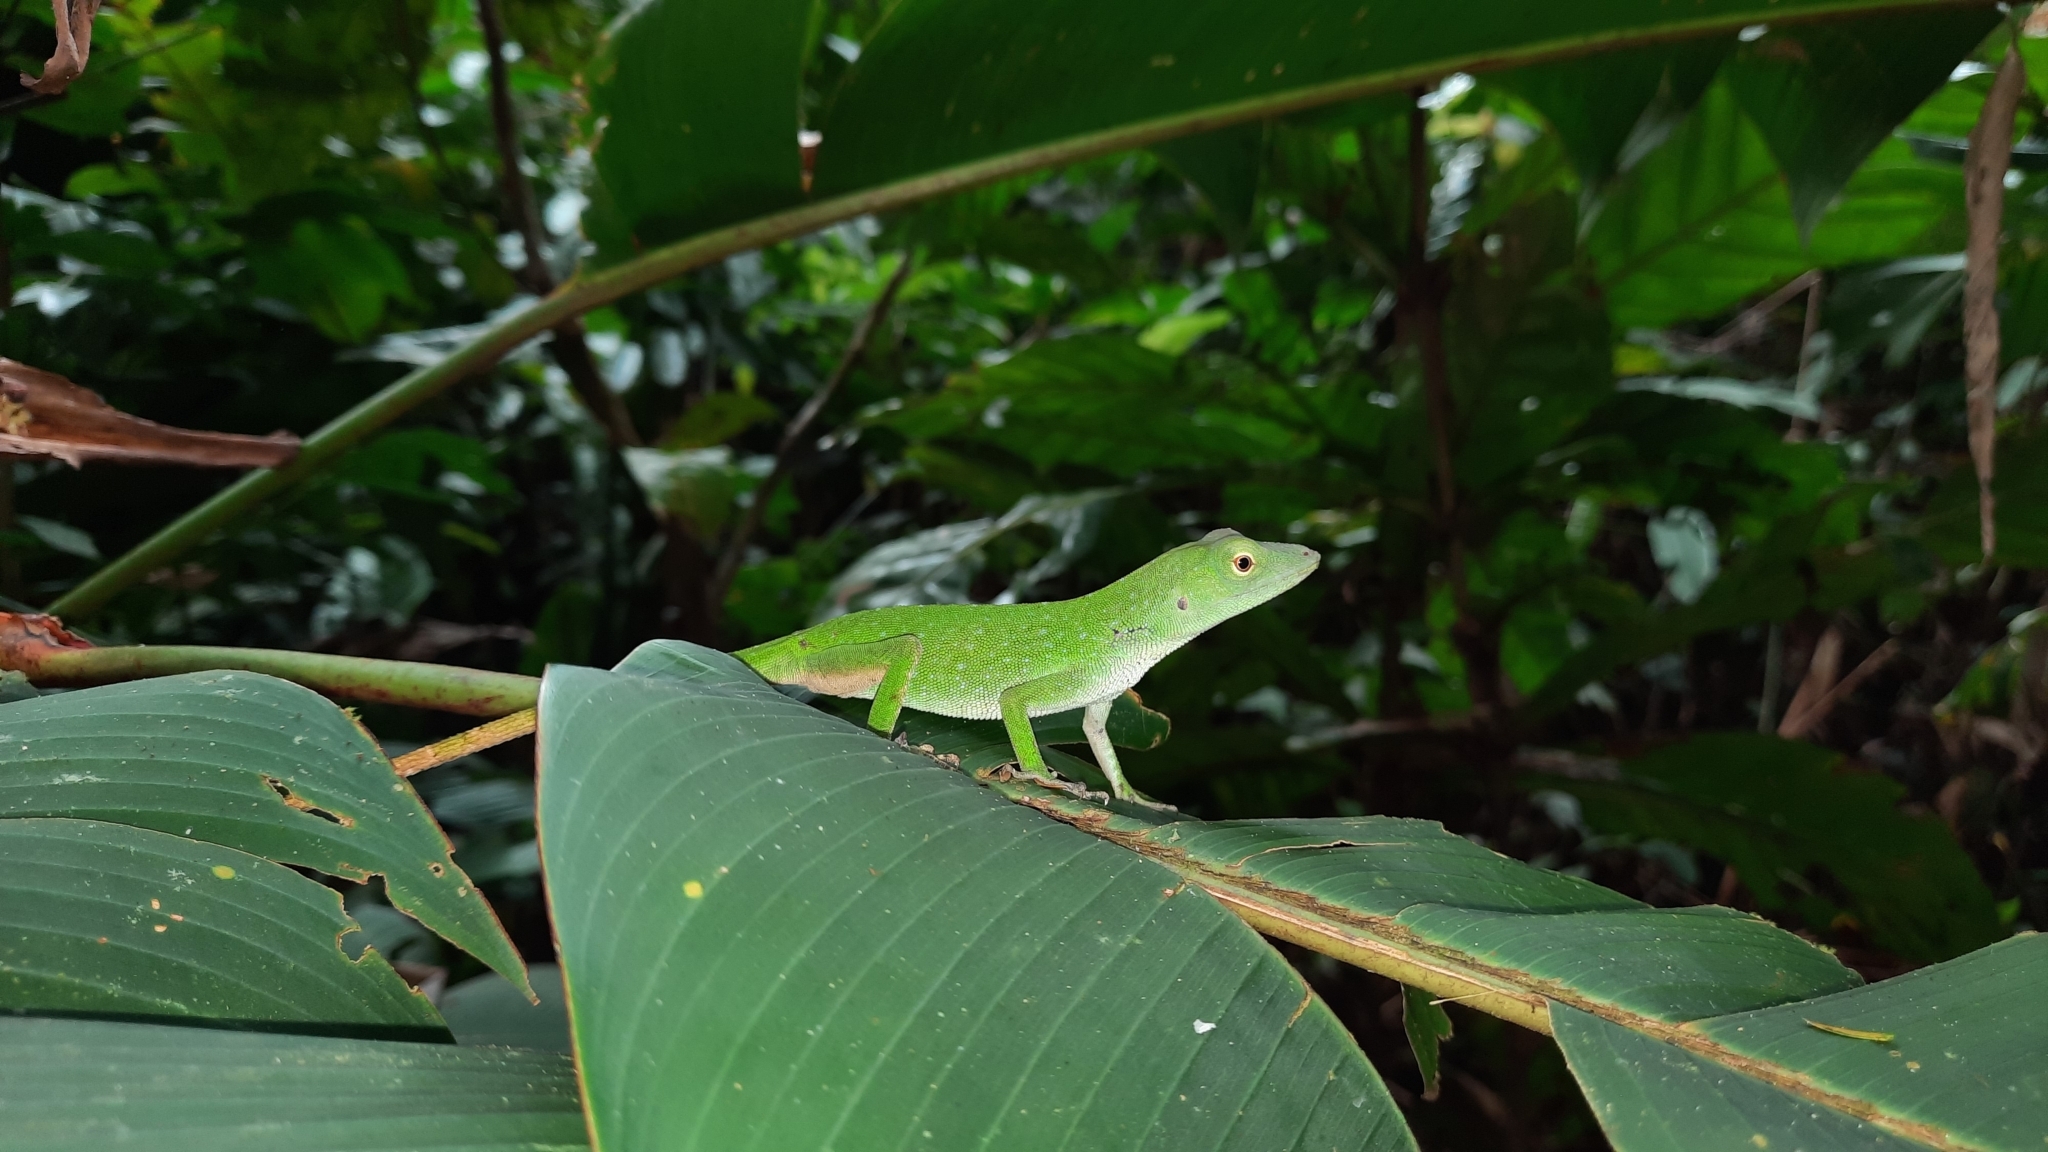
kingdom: Animalia
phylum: Chordata
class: Squamata
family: Dactyloidae
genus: Anolis
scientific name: Anolis biporcatus
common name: Giant green anole
